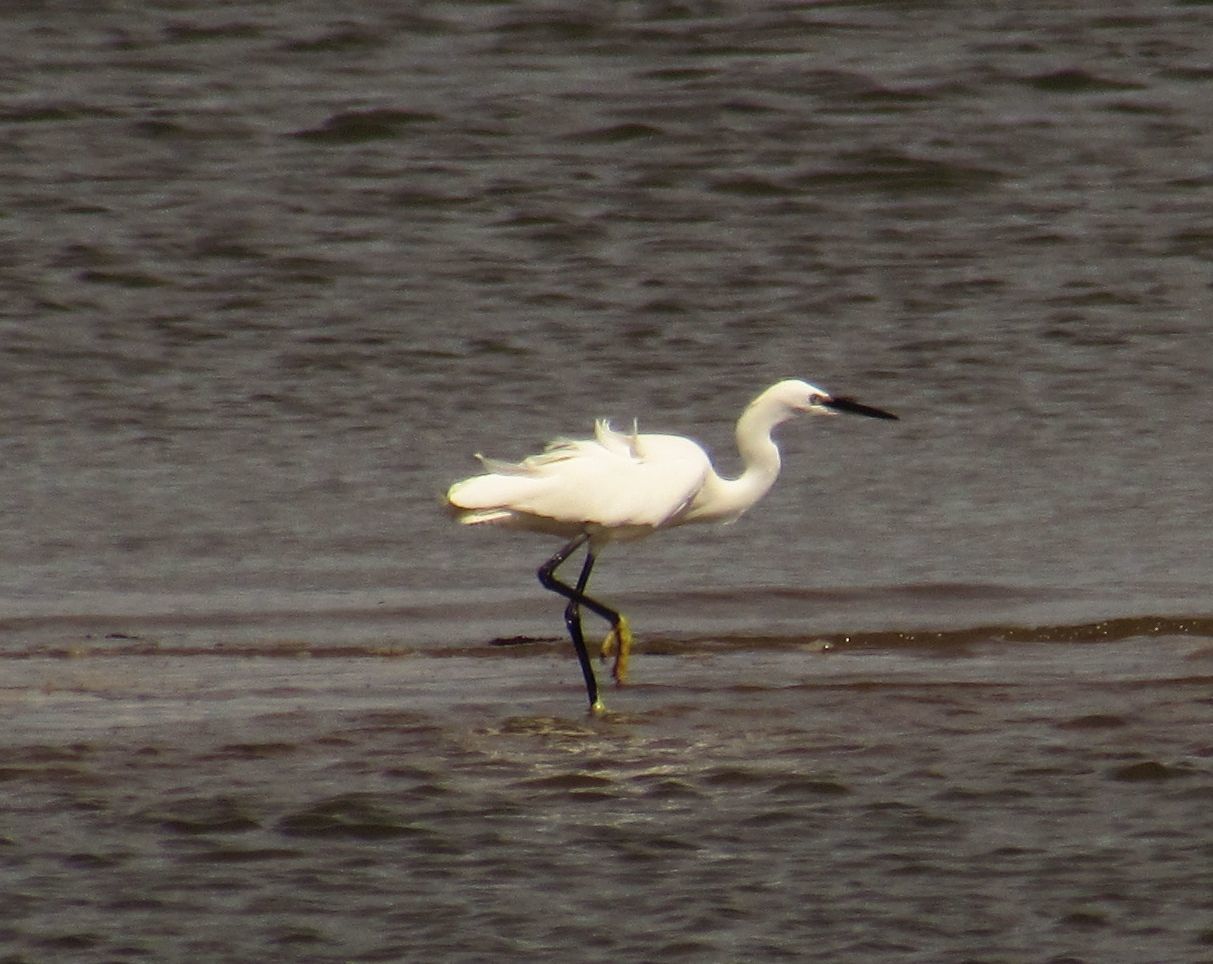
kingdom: Animalia
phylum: Chordata
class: Aves
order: Pelecaniformes
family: Ardeidae
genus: Egretta
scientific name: Egretta garzetta
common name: Little egret
